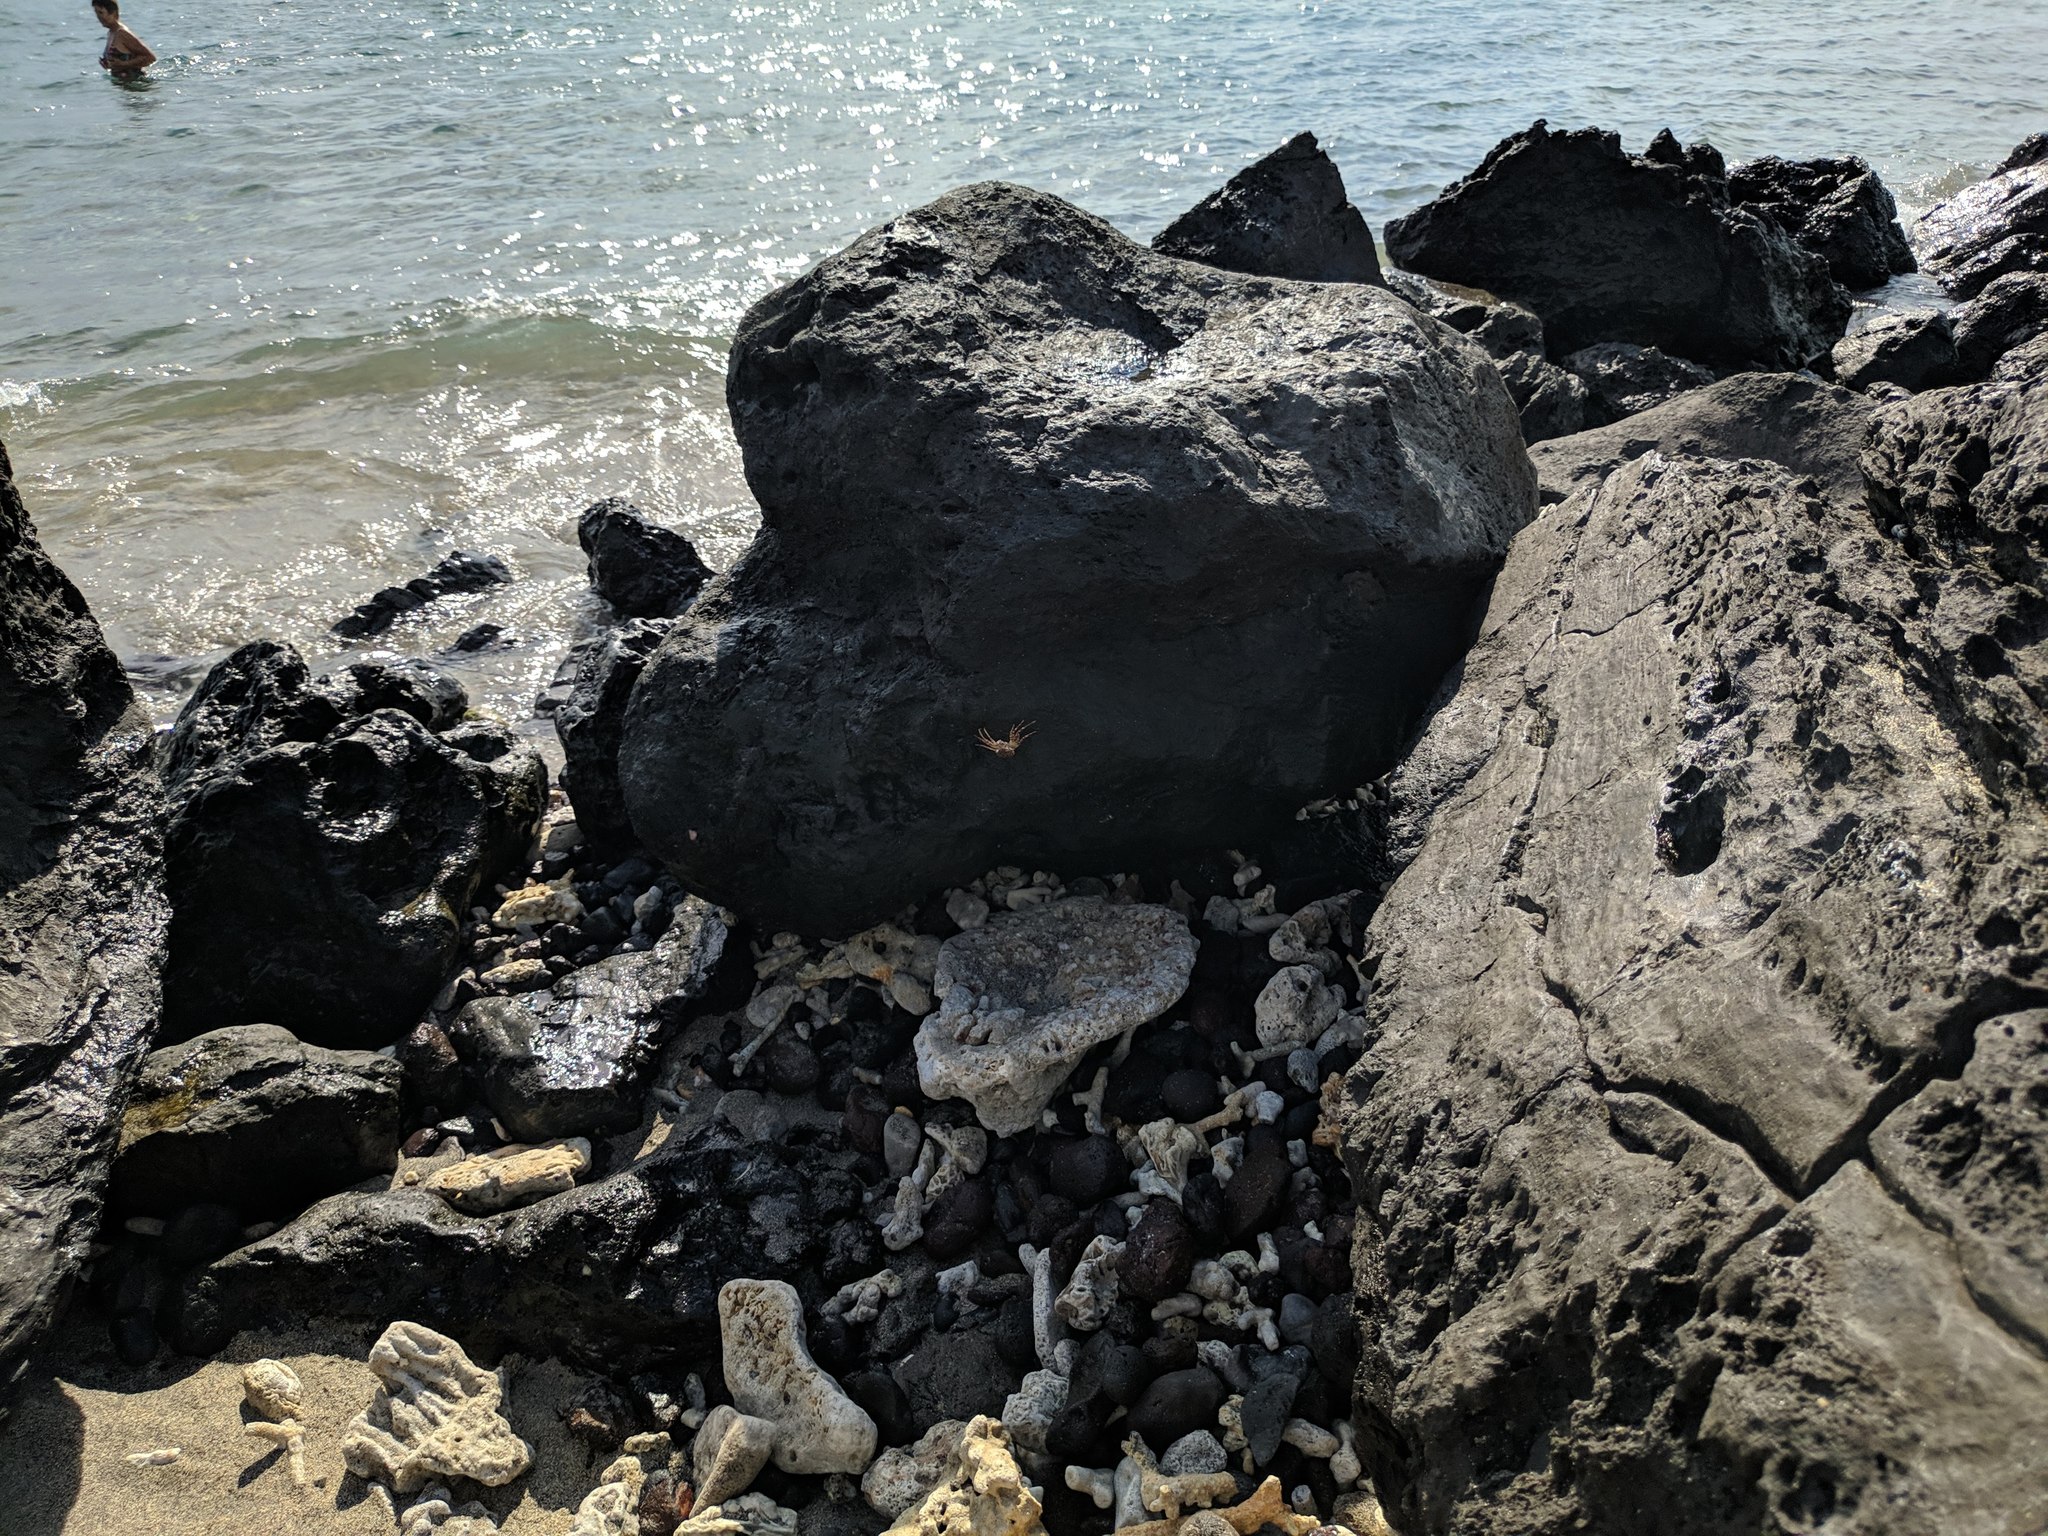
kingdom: Animalia
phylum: Arthropoda
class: Malacostraca
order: Decapoda
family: Grapsidae
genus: Grapsus
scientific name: Grapsus tenuicrustatus
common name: Natal lightfoot crab
